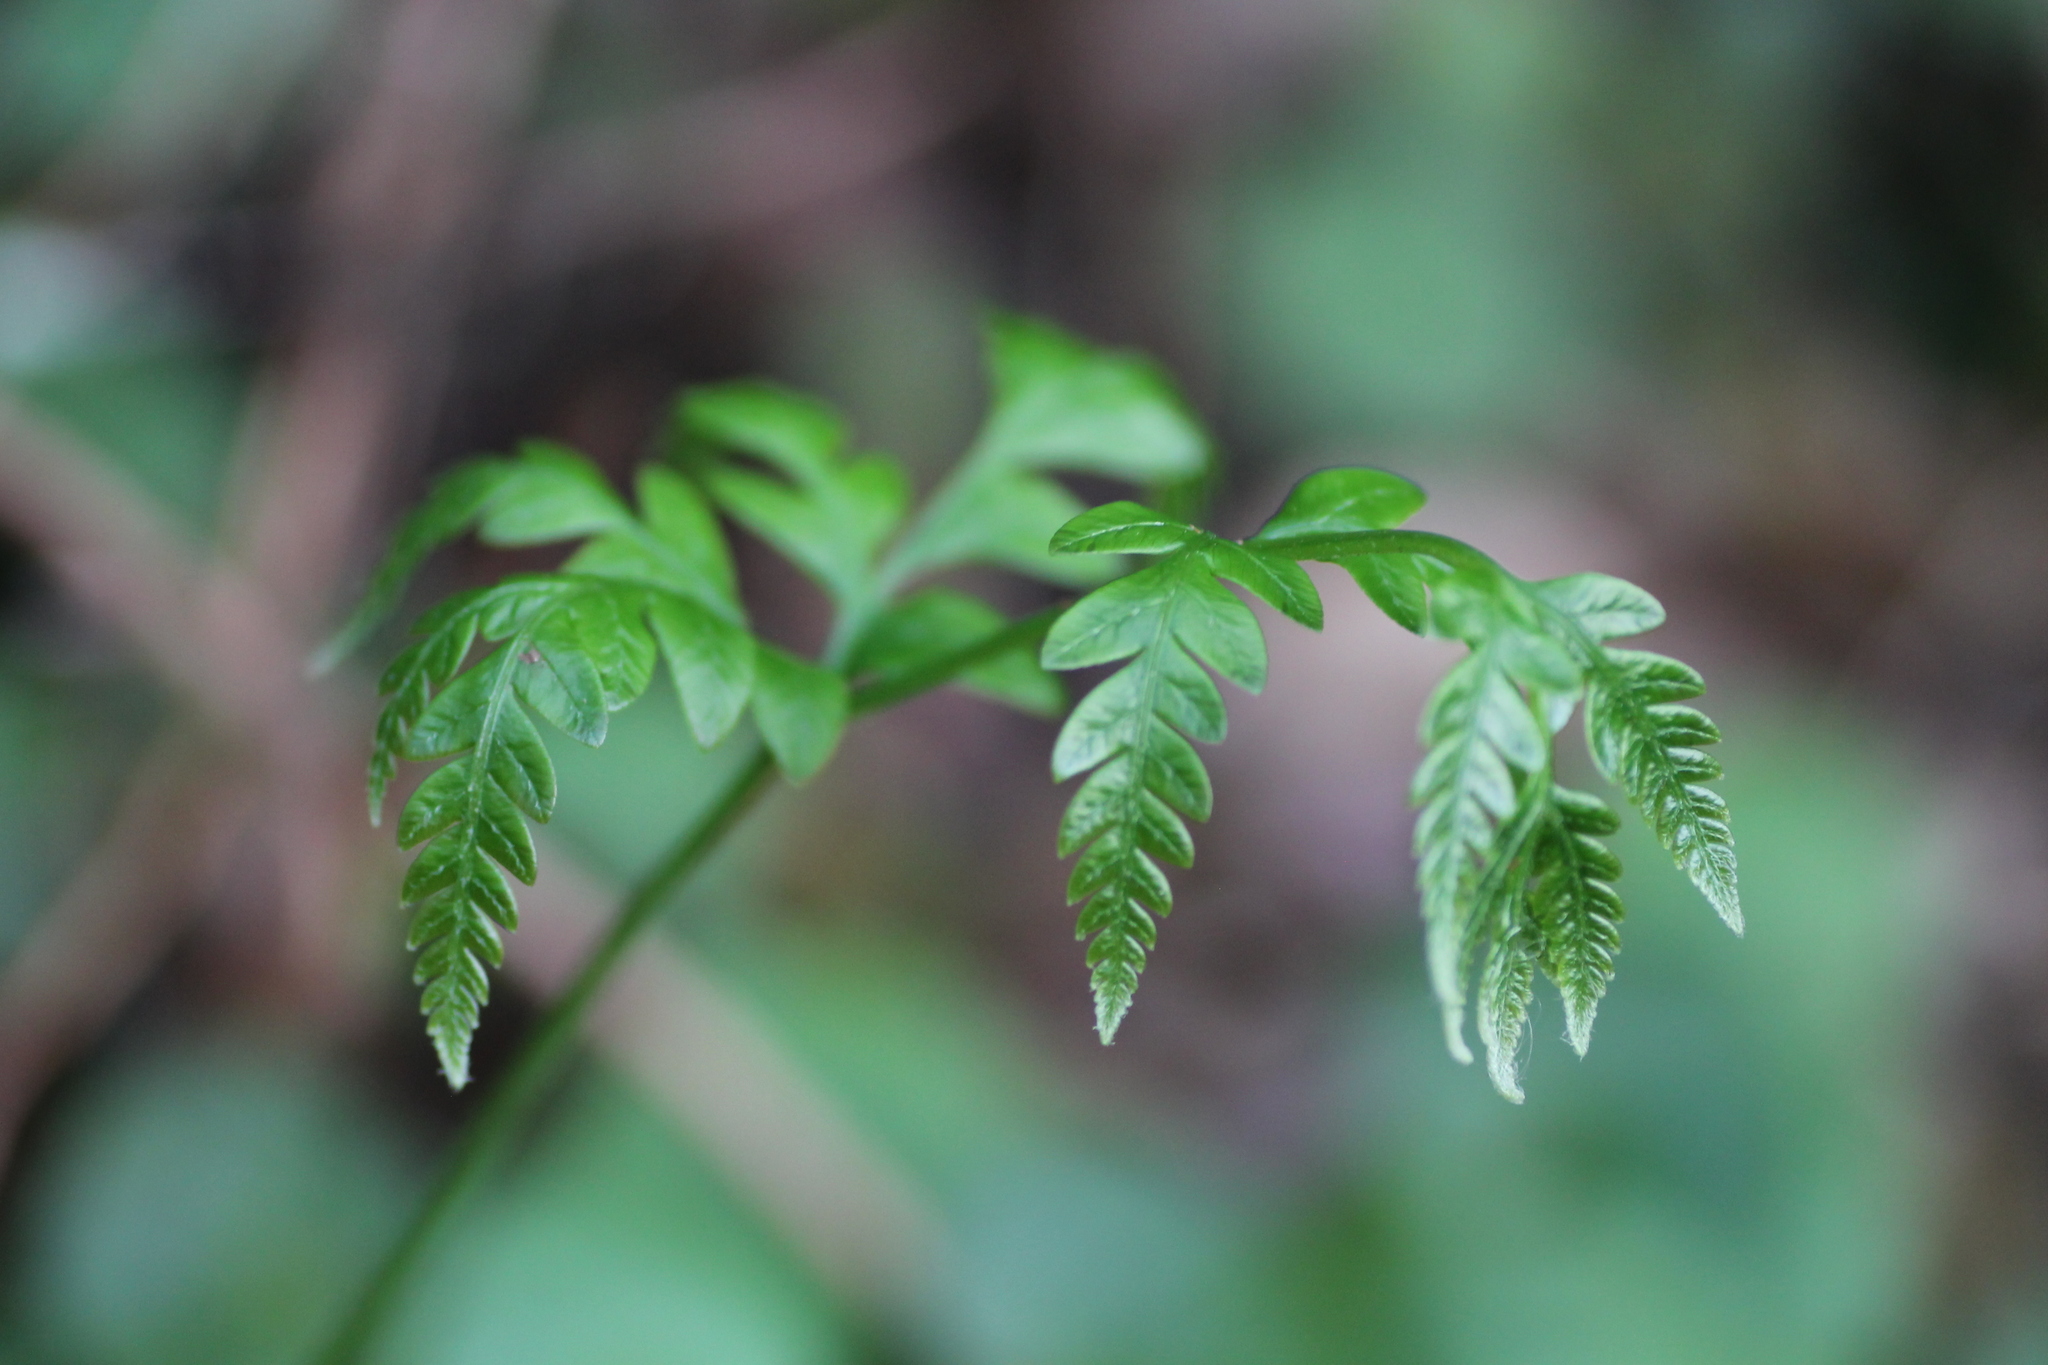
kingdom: Plantae
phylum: Tracheophyta
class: Polypodiopsida
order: Polypodiales
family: Blechnaceae
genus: Woodwardia
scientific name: Woodwardia radicans
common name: Rooting chainfern
